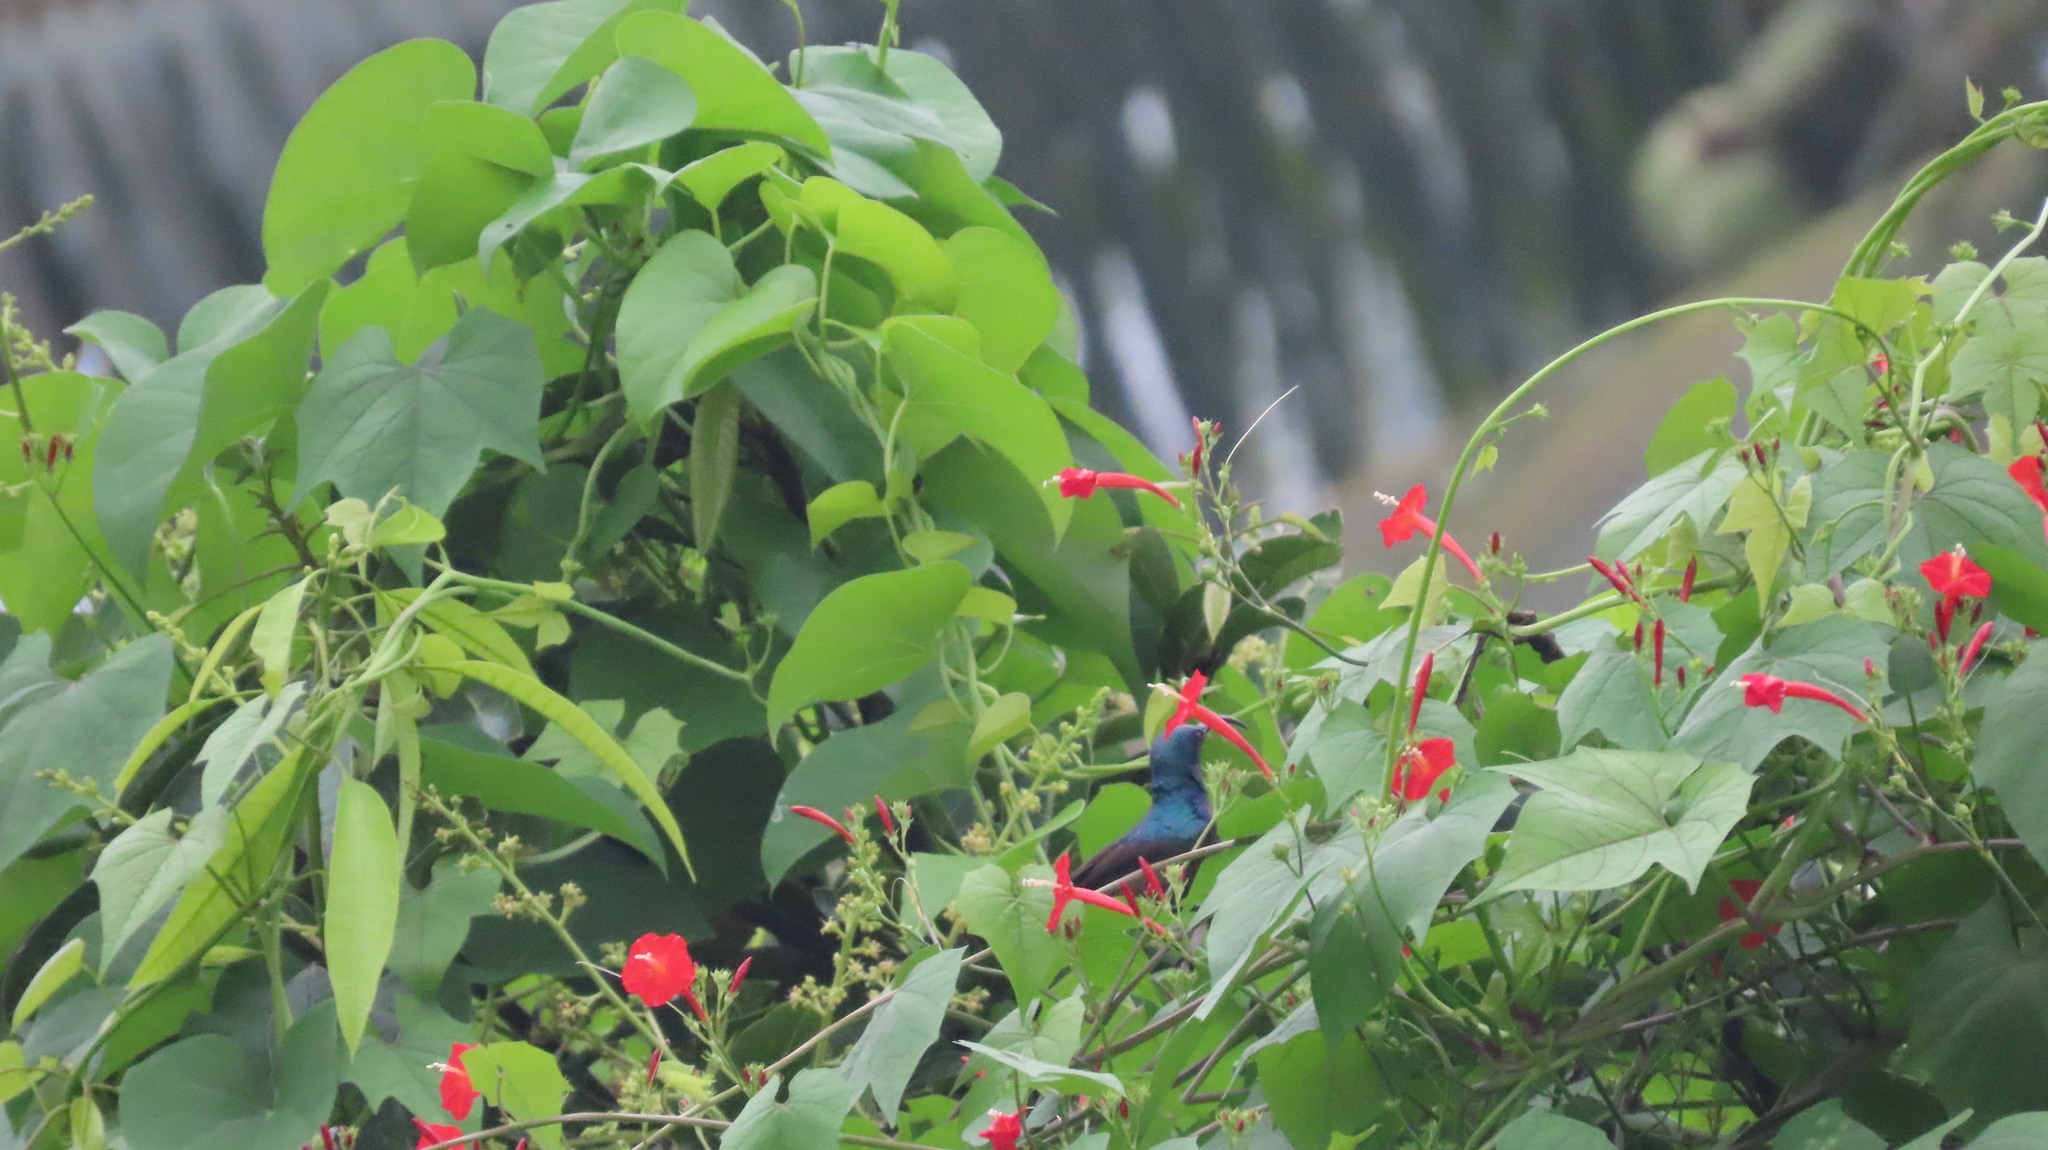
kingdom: Animalia
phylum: Chordata
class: Aves
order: Passeriformes
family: Nectariniidae
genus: Cinnyris
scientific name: Cinnyris lotenius
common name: Loten's sunbird
